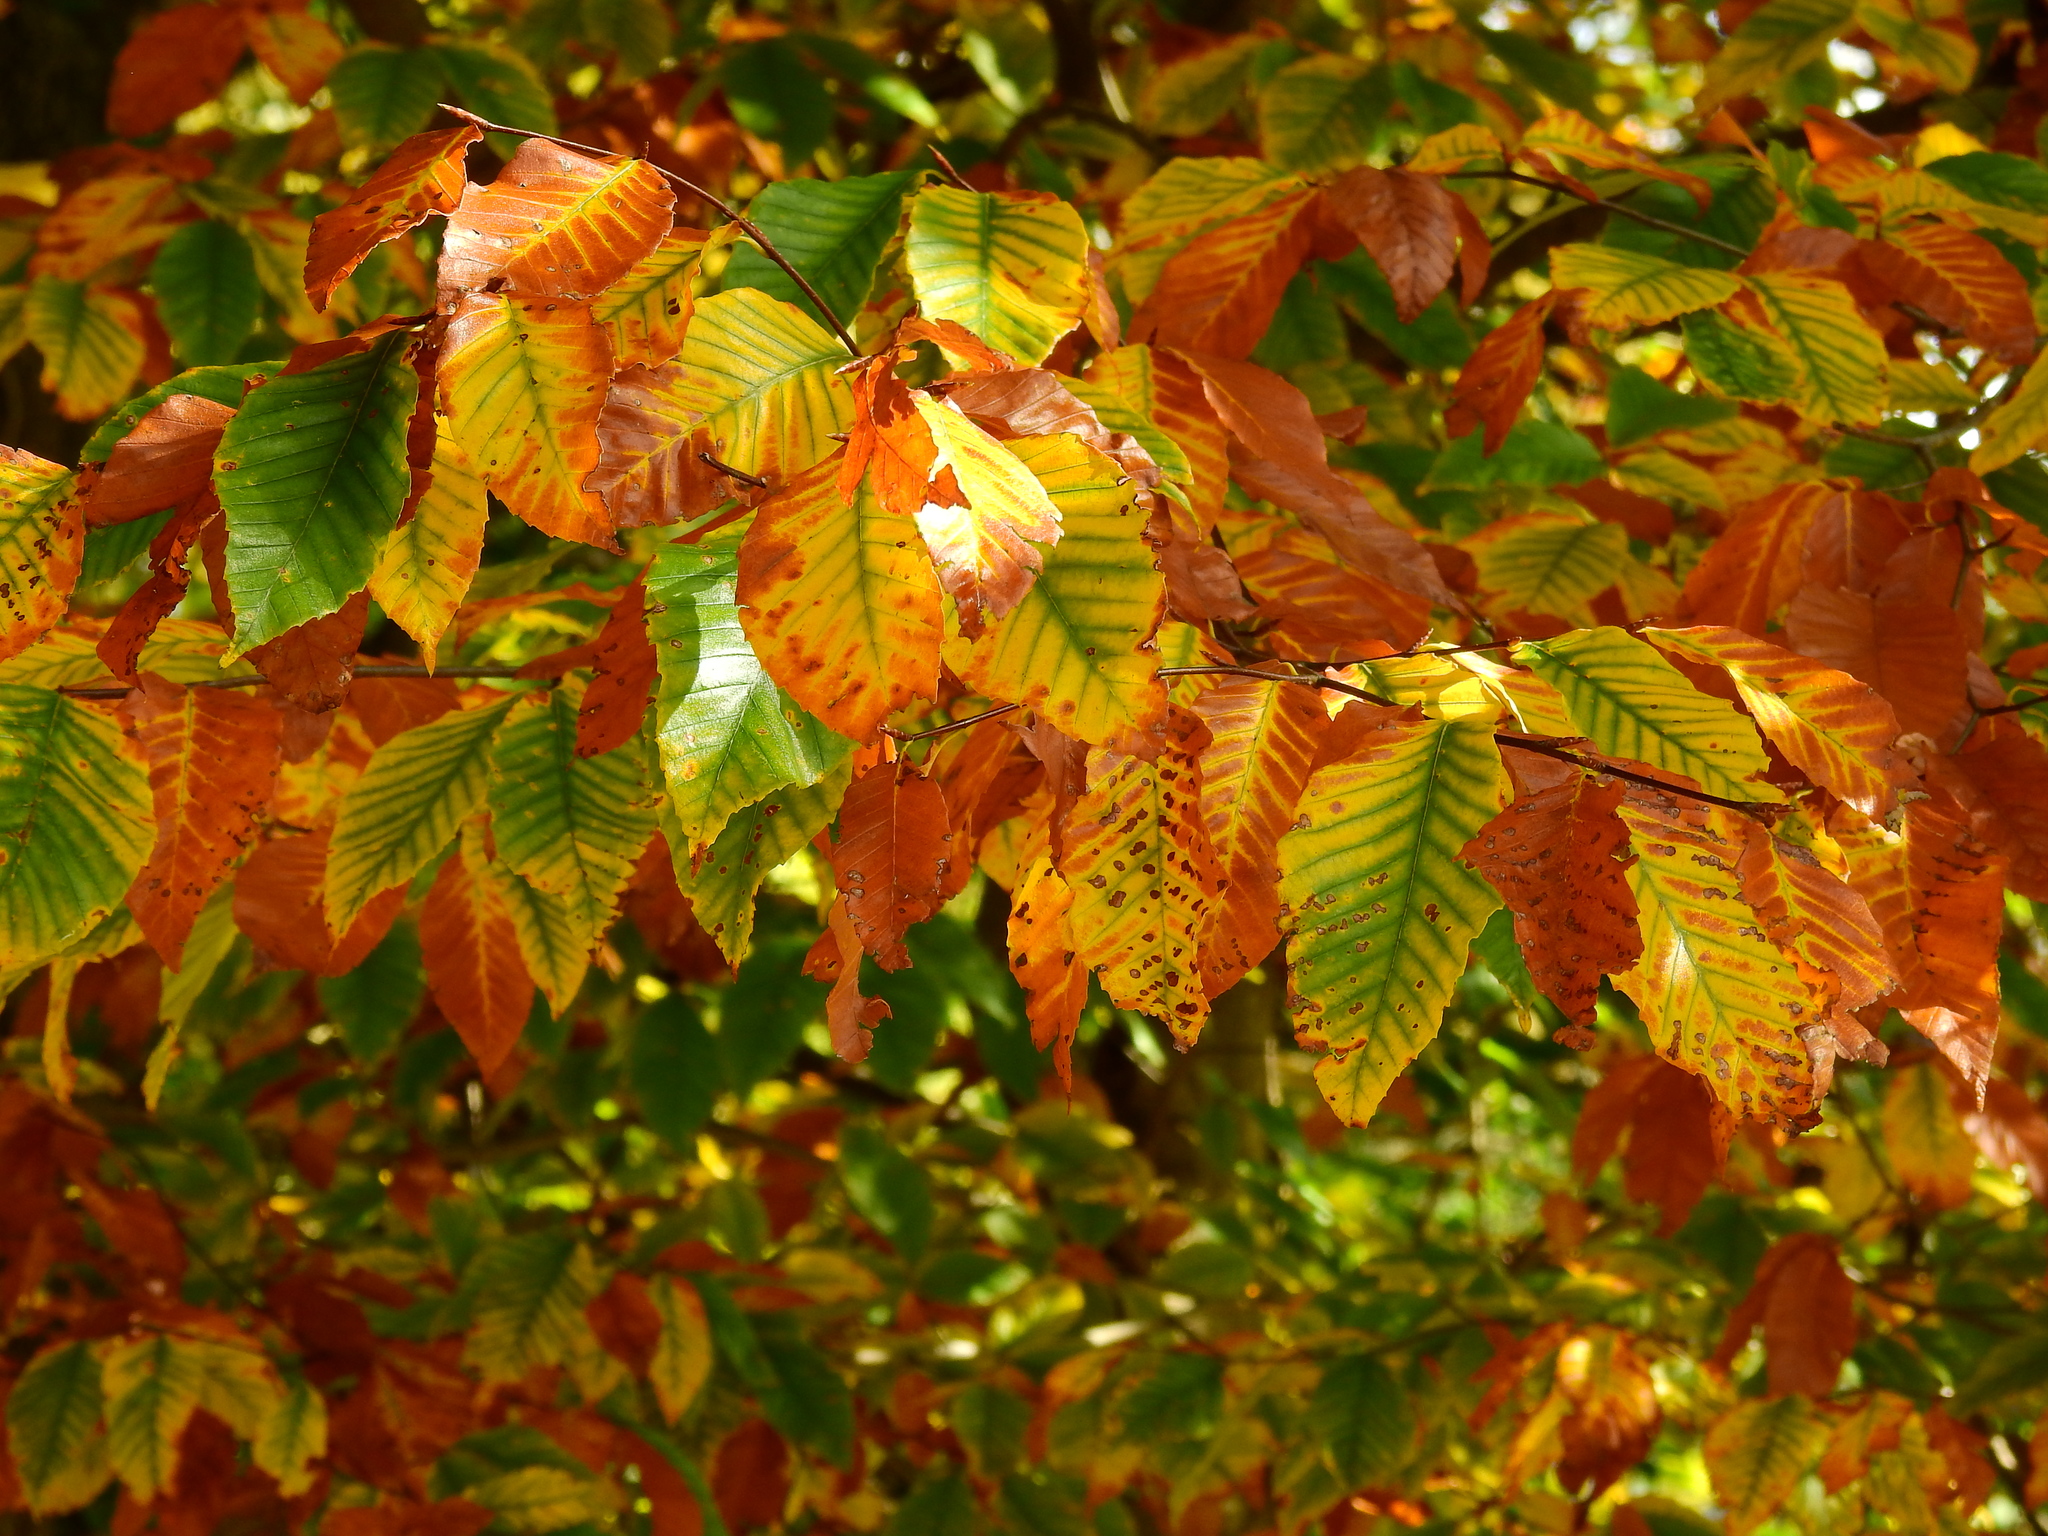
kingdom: Plantae
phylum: Tracheophyta
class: Magnoliopsida
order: Fagales
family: Fagaceae
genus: Fagus
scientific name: Fagus grandifolia
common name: American beech
